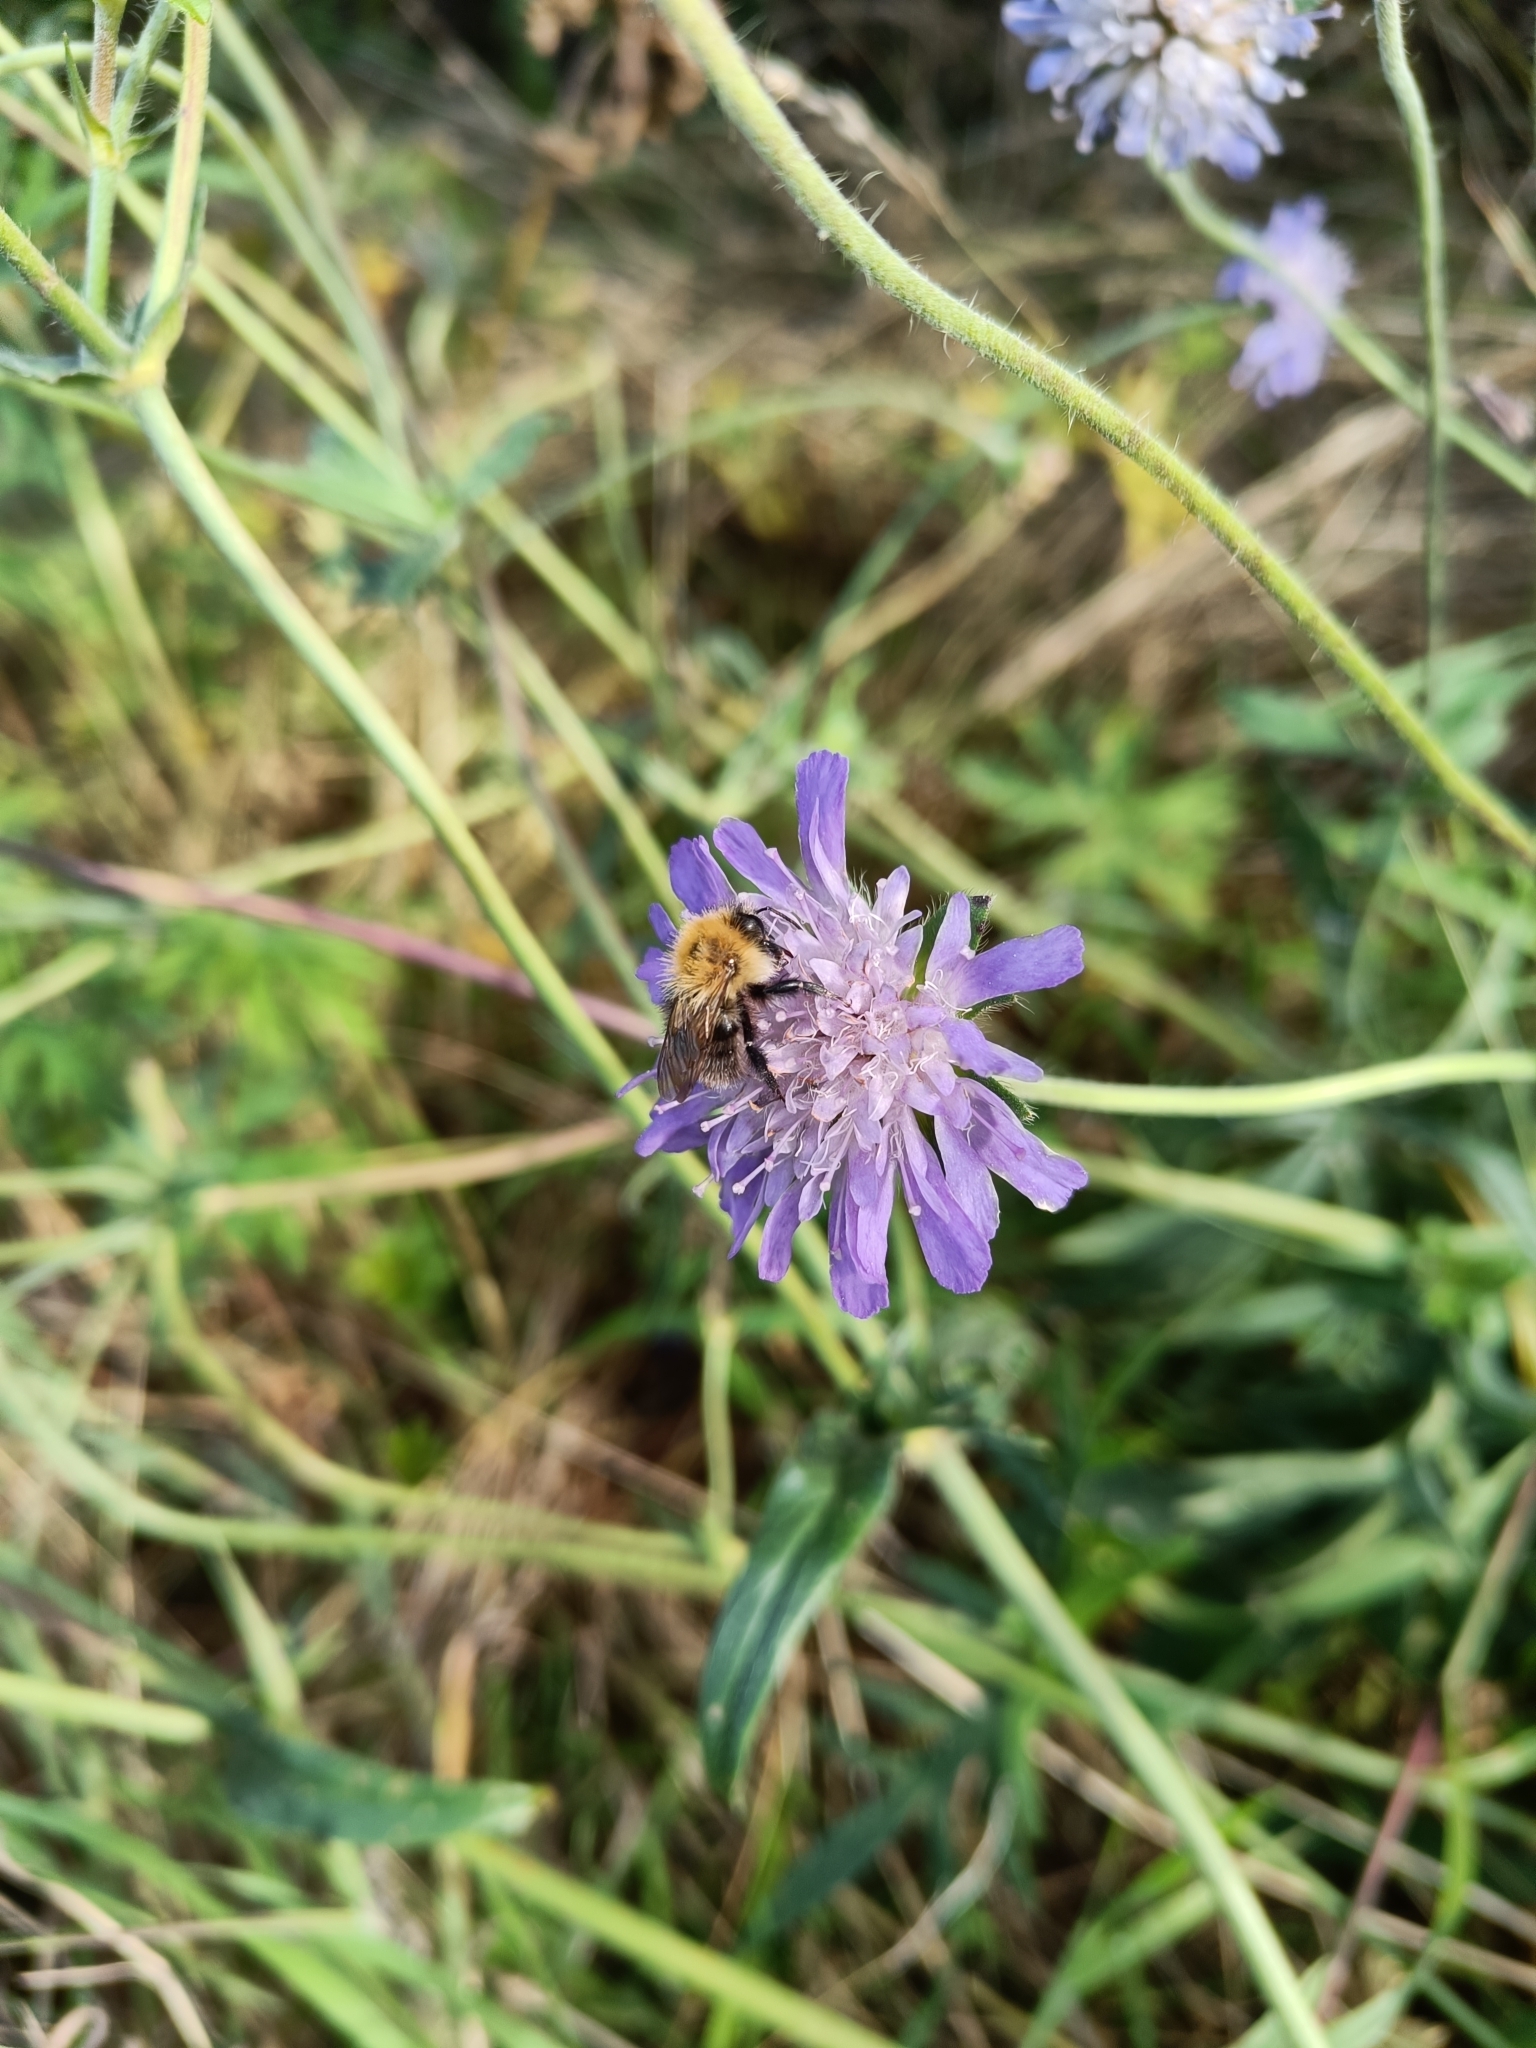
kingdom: Animalia
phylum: Arthropoda
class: Insecta
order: Hymenoptera
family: Apidae
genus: Bombus
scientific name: Bombus pascuorum
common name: Common carder bee
